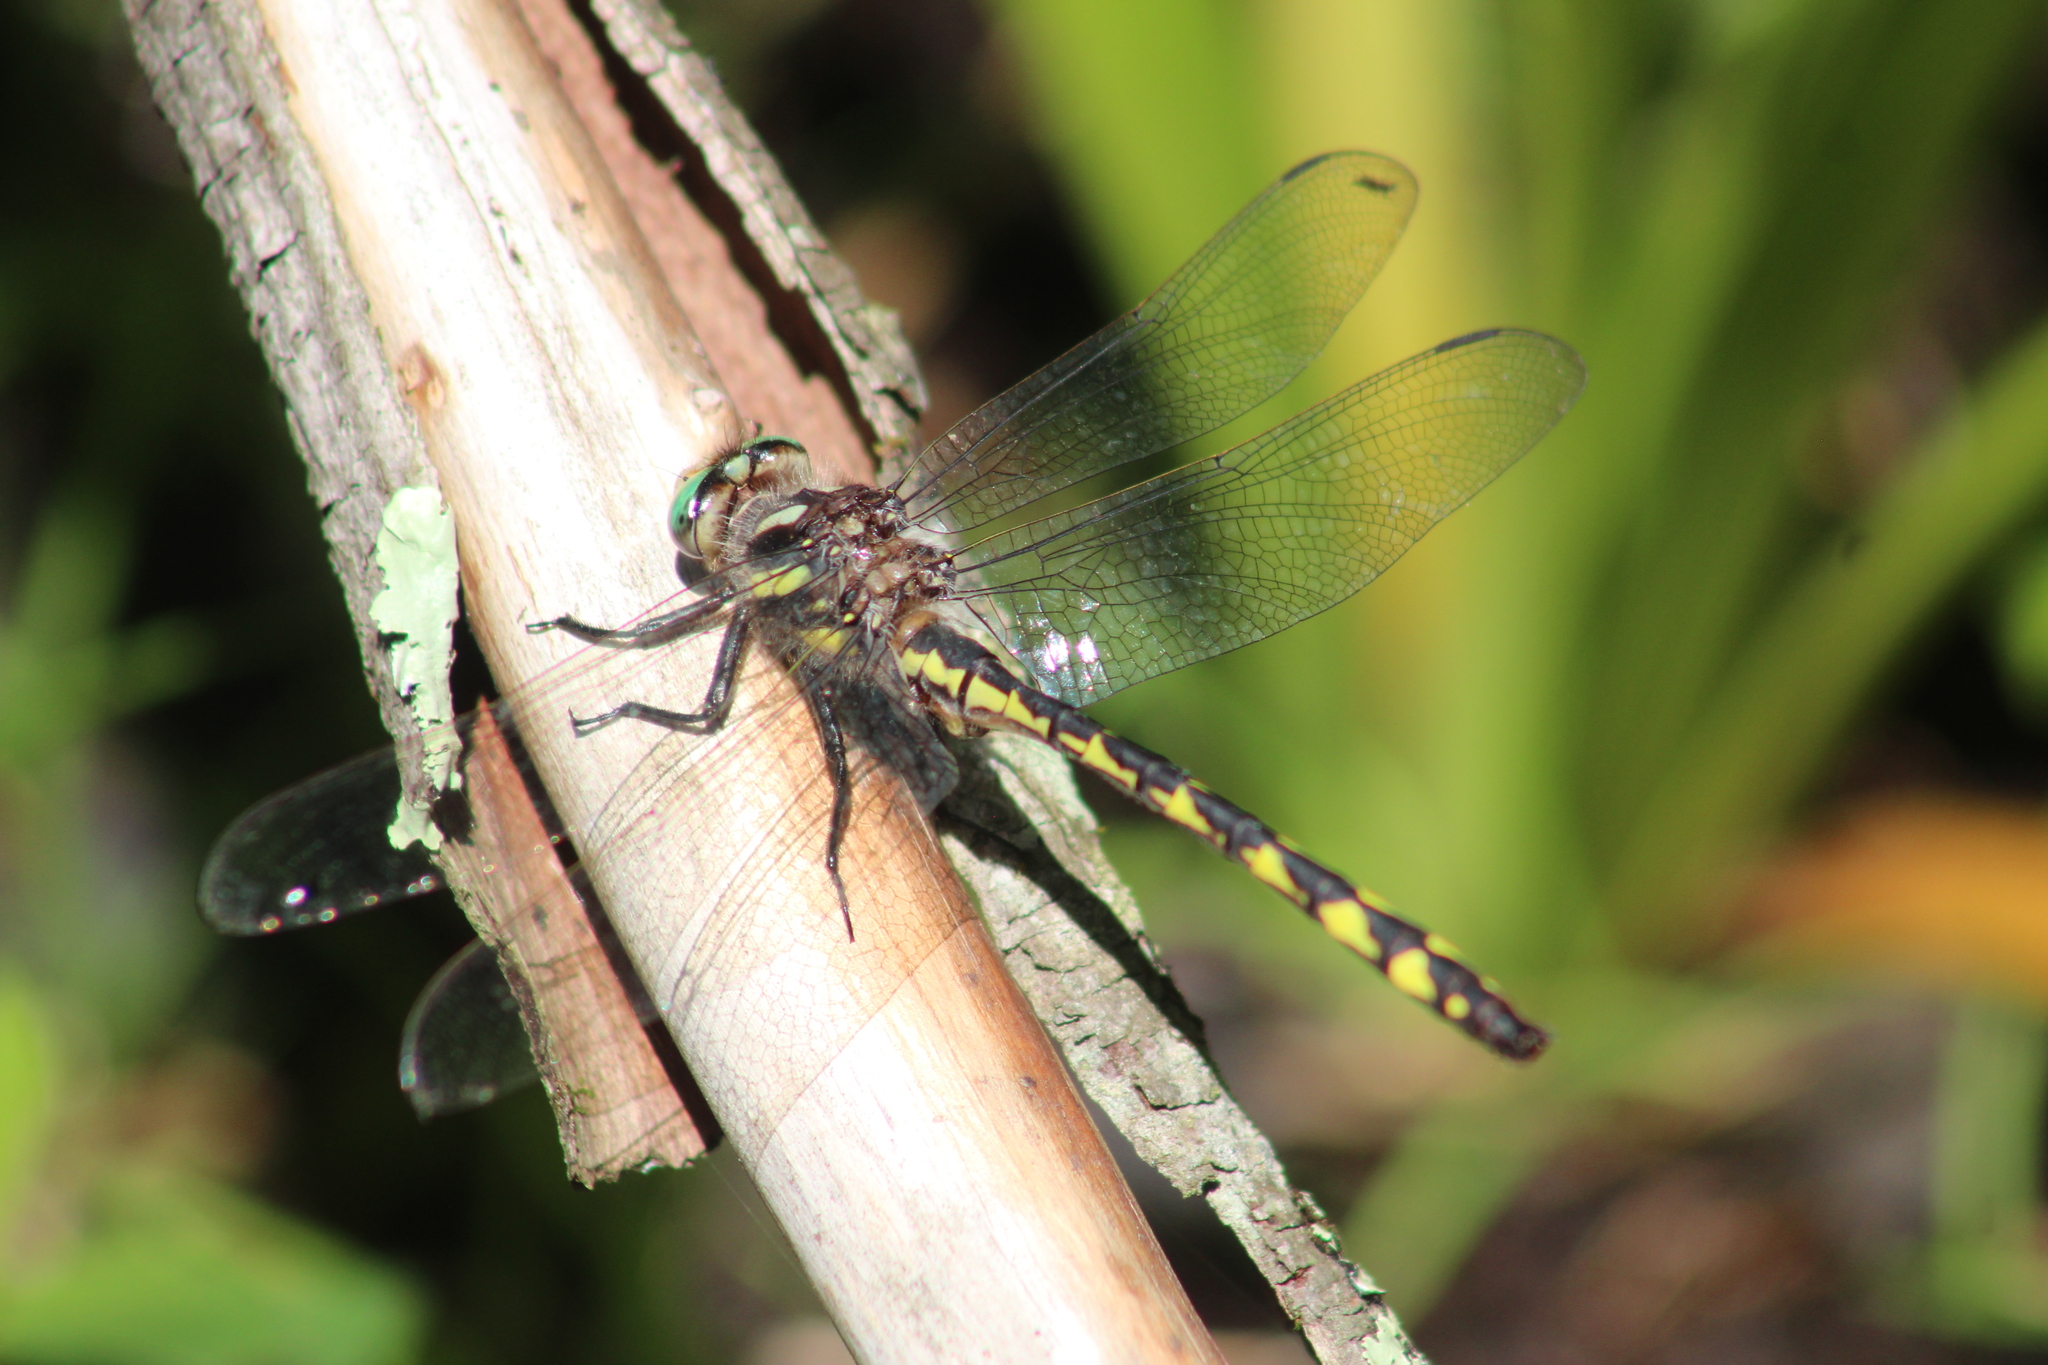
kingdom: Animalia
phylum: Arthropoda
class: Insecta
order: Odonata
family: Cordulegastridae
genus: Cordulegaster
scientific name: Cordulegaster diastatops
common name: Delta-spotted spiketail
